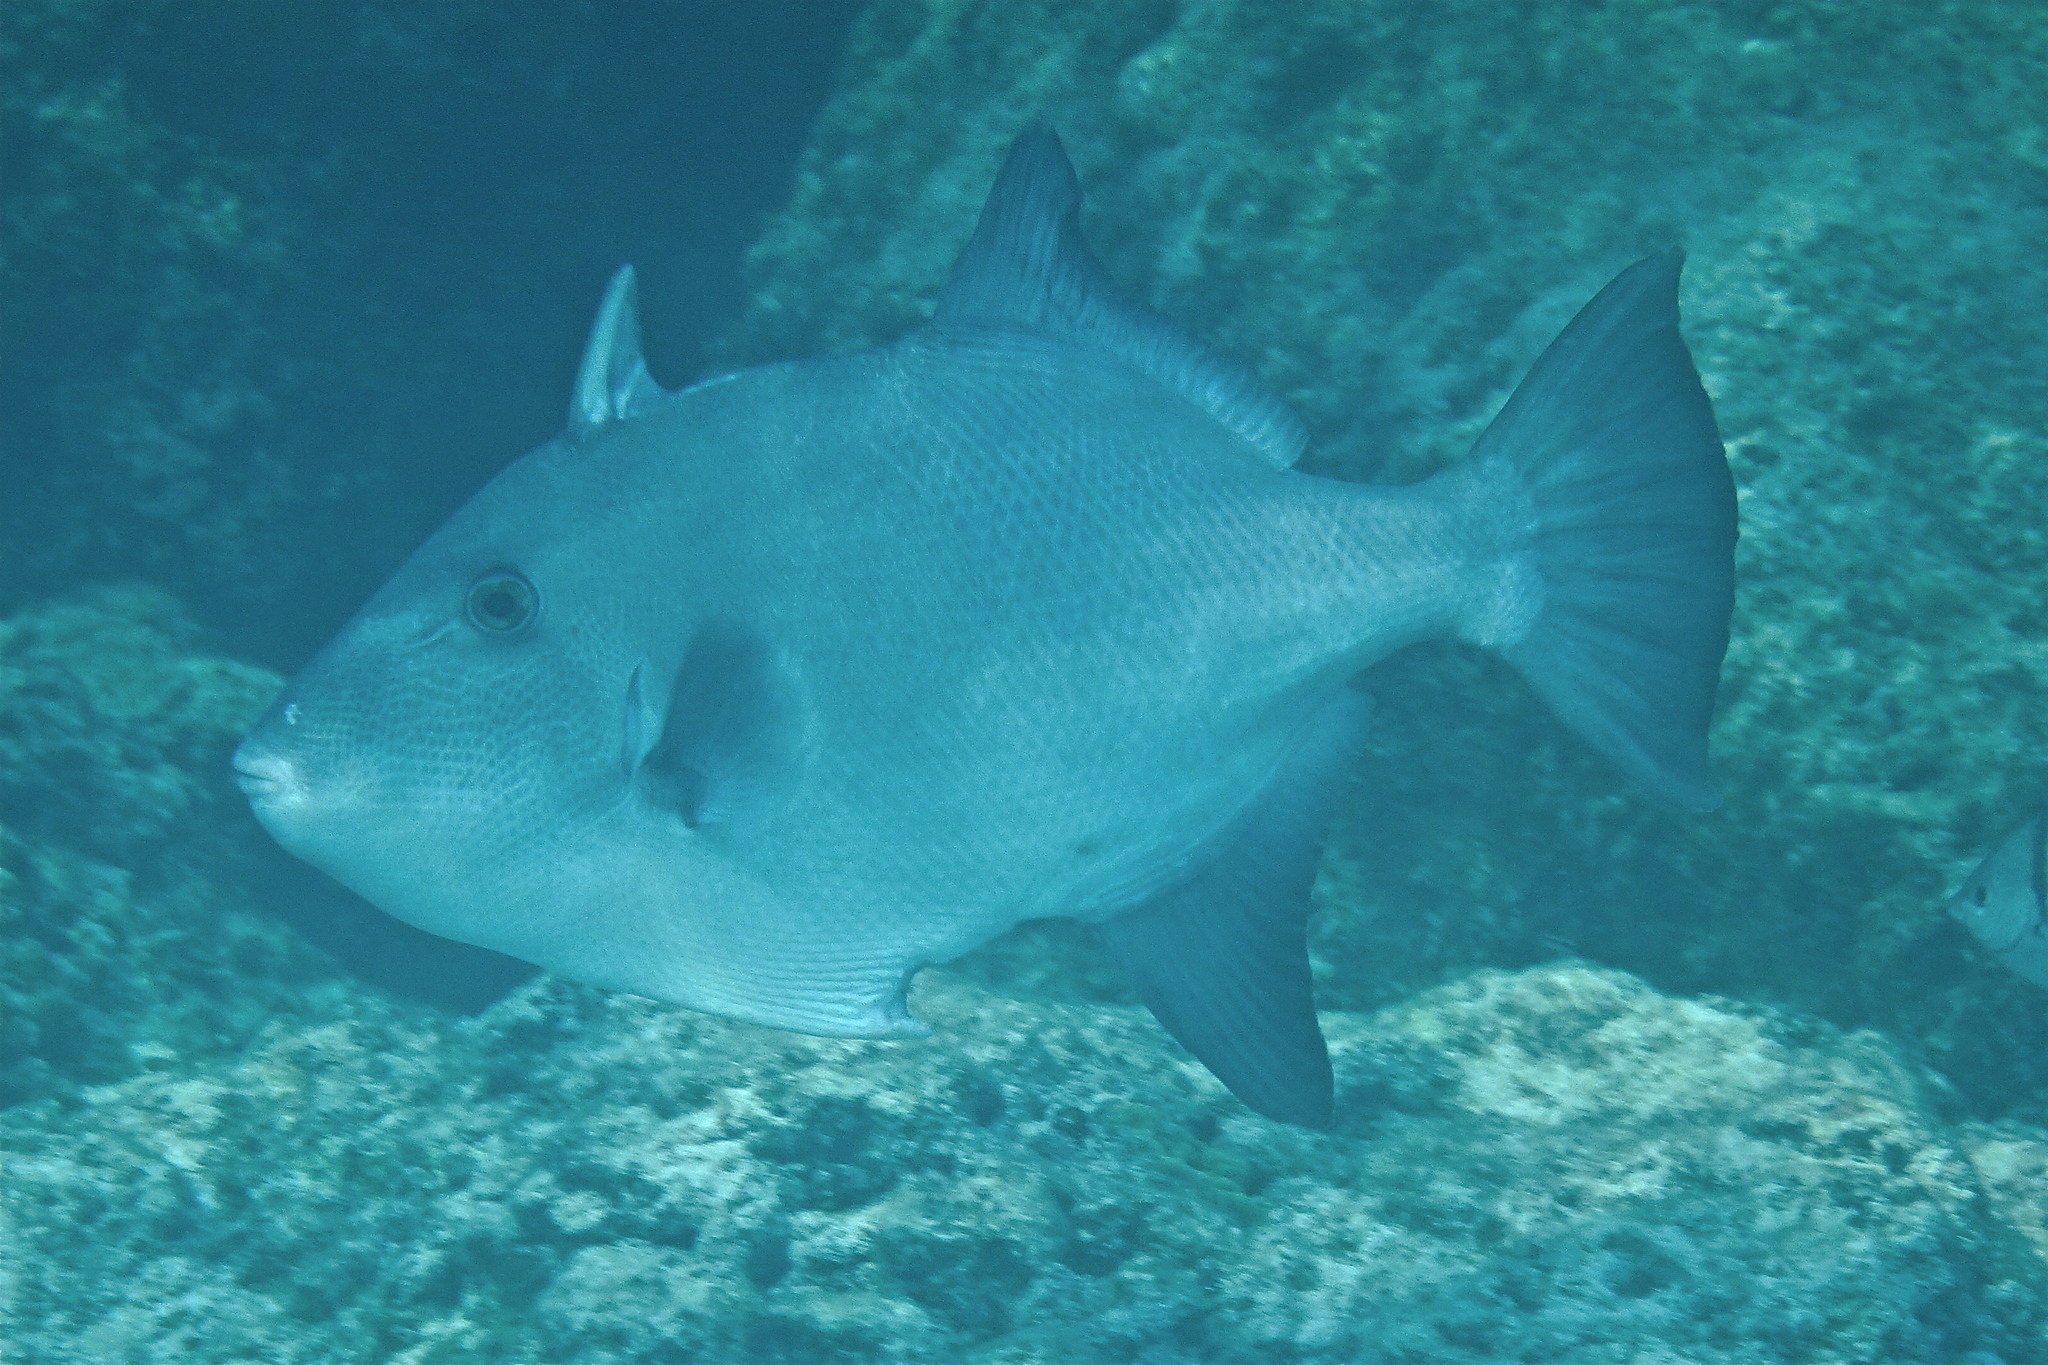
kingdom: Animalia
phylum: Chordata
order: Tetraodontiformes
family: Balistidae
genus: Canthidermis
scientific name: Canthidermis sufflamen
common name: Ocean triggerfish
